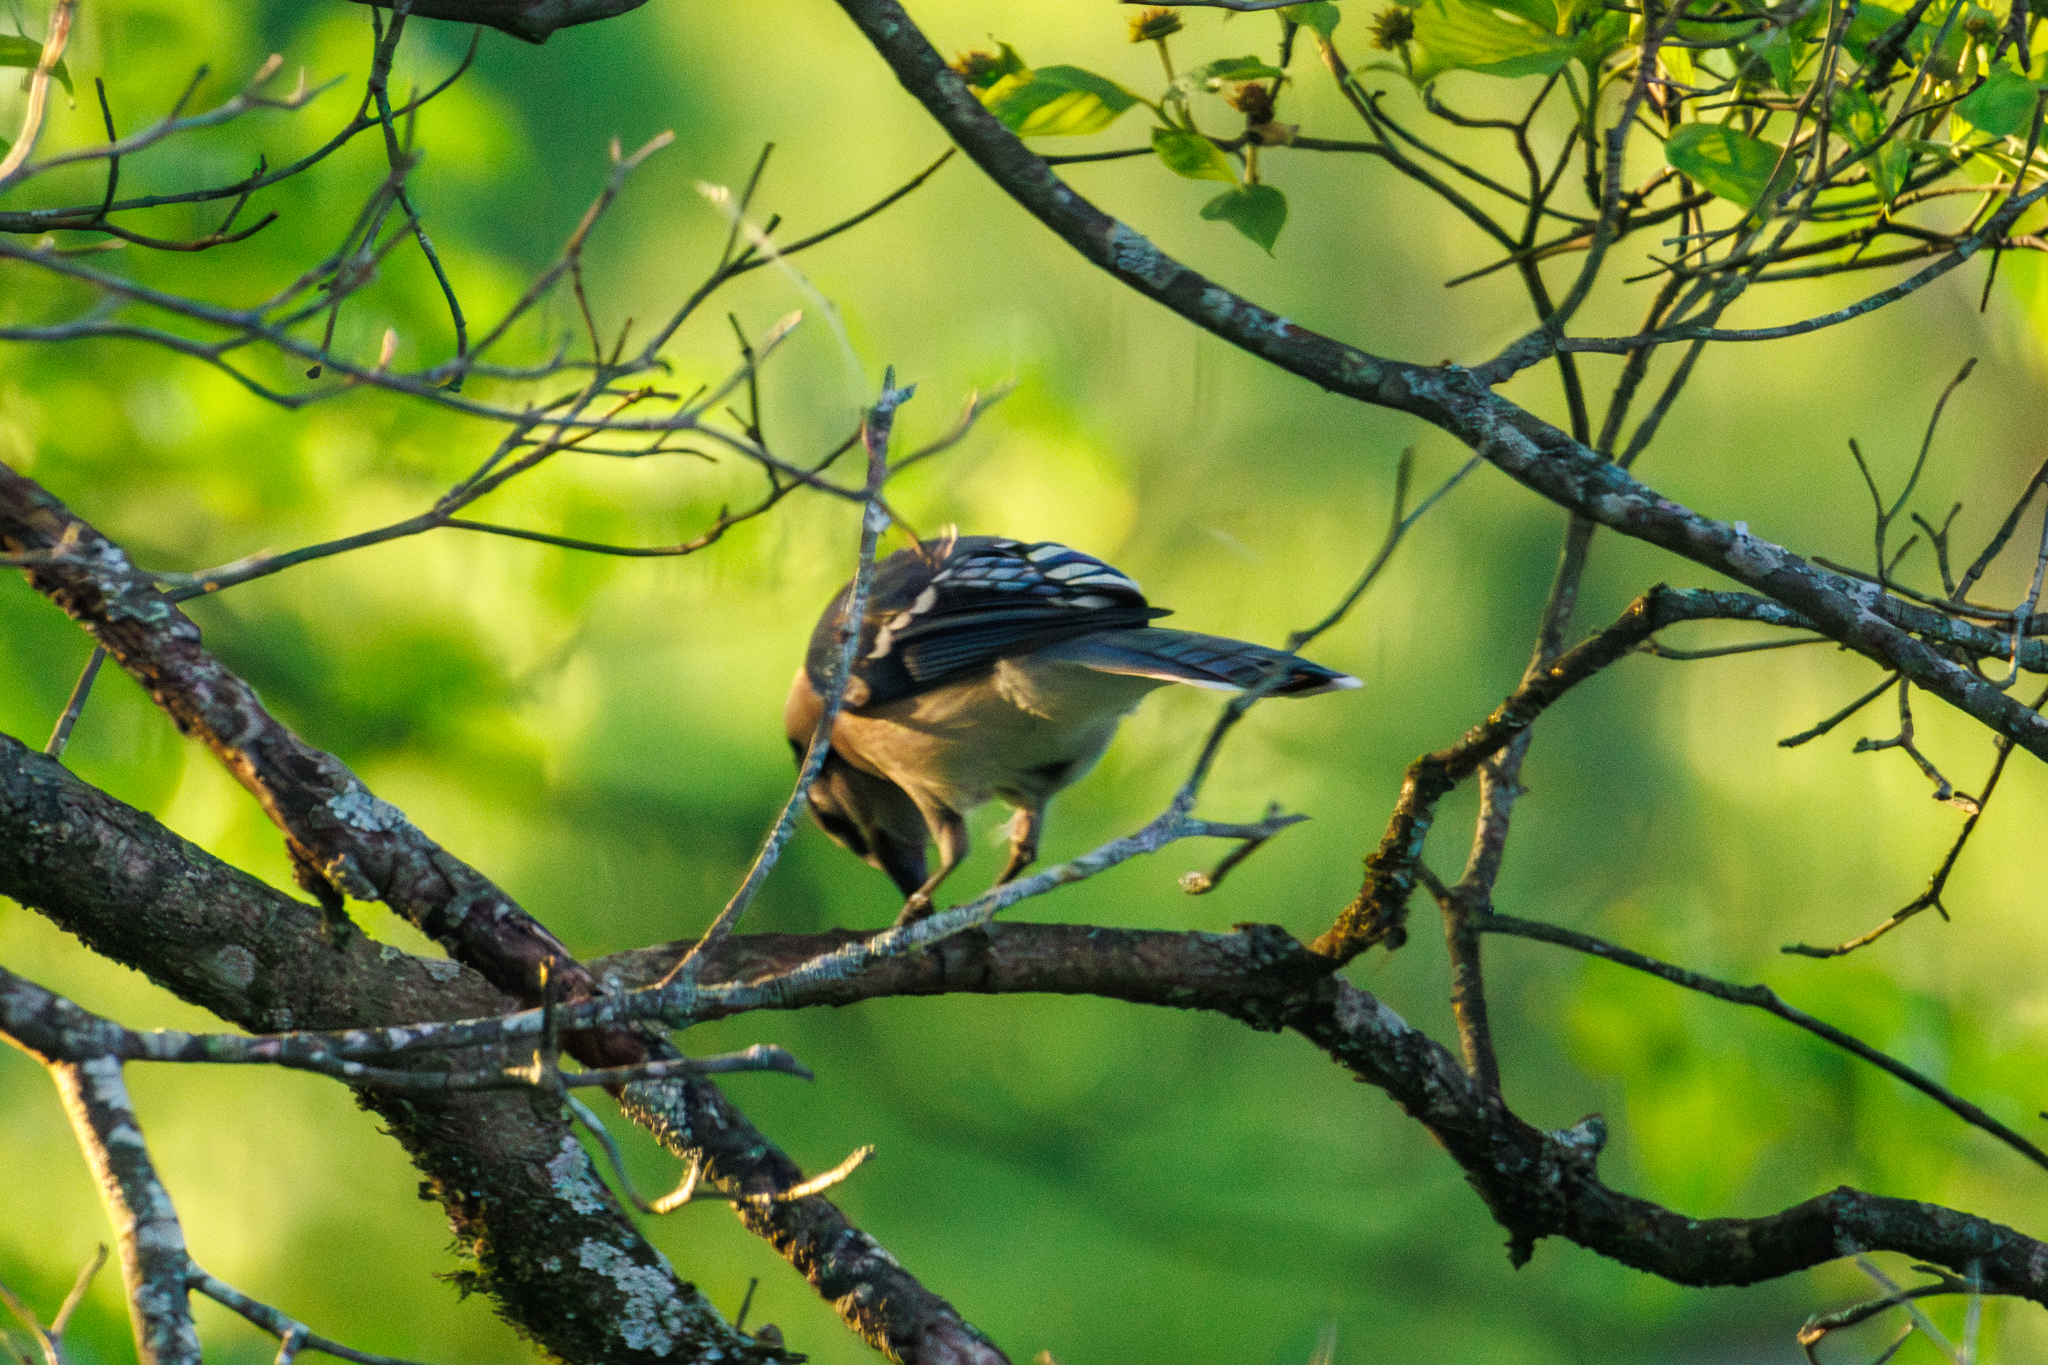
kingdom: Animalia
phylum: Chordata
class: Aves
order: Passeriformes
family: Corvidae
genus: Cyanocitta
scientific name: Cyanocitta cristata
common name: Blue jay
